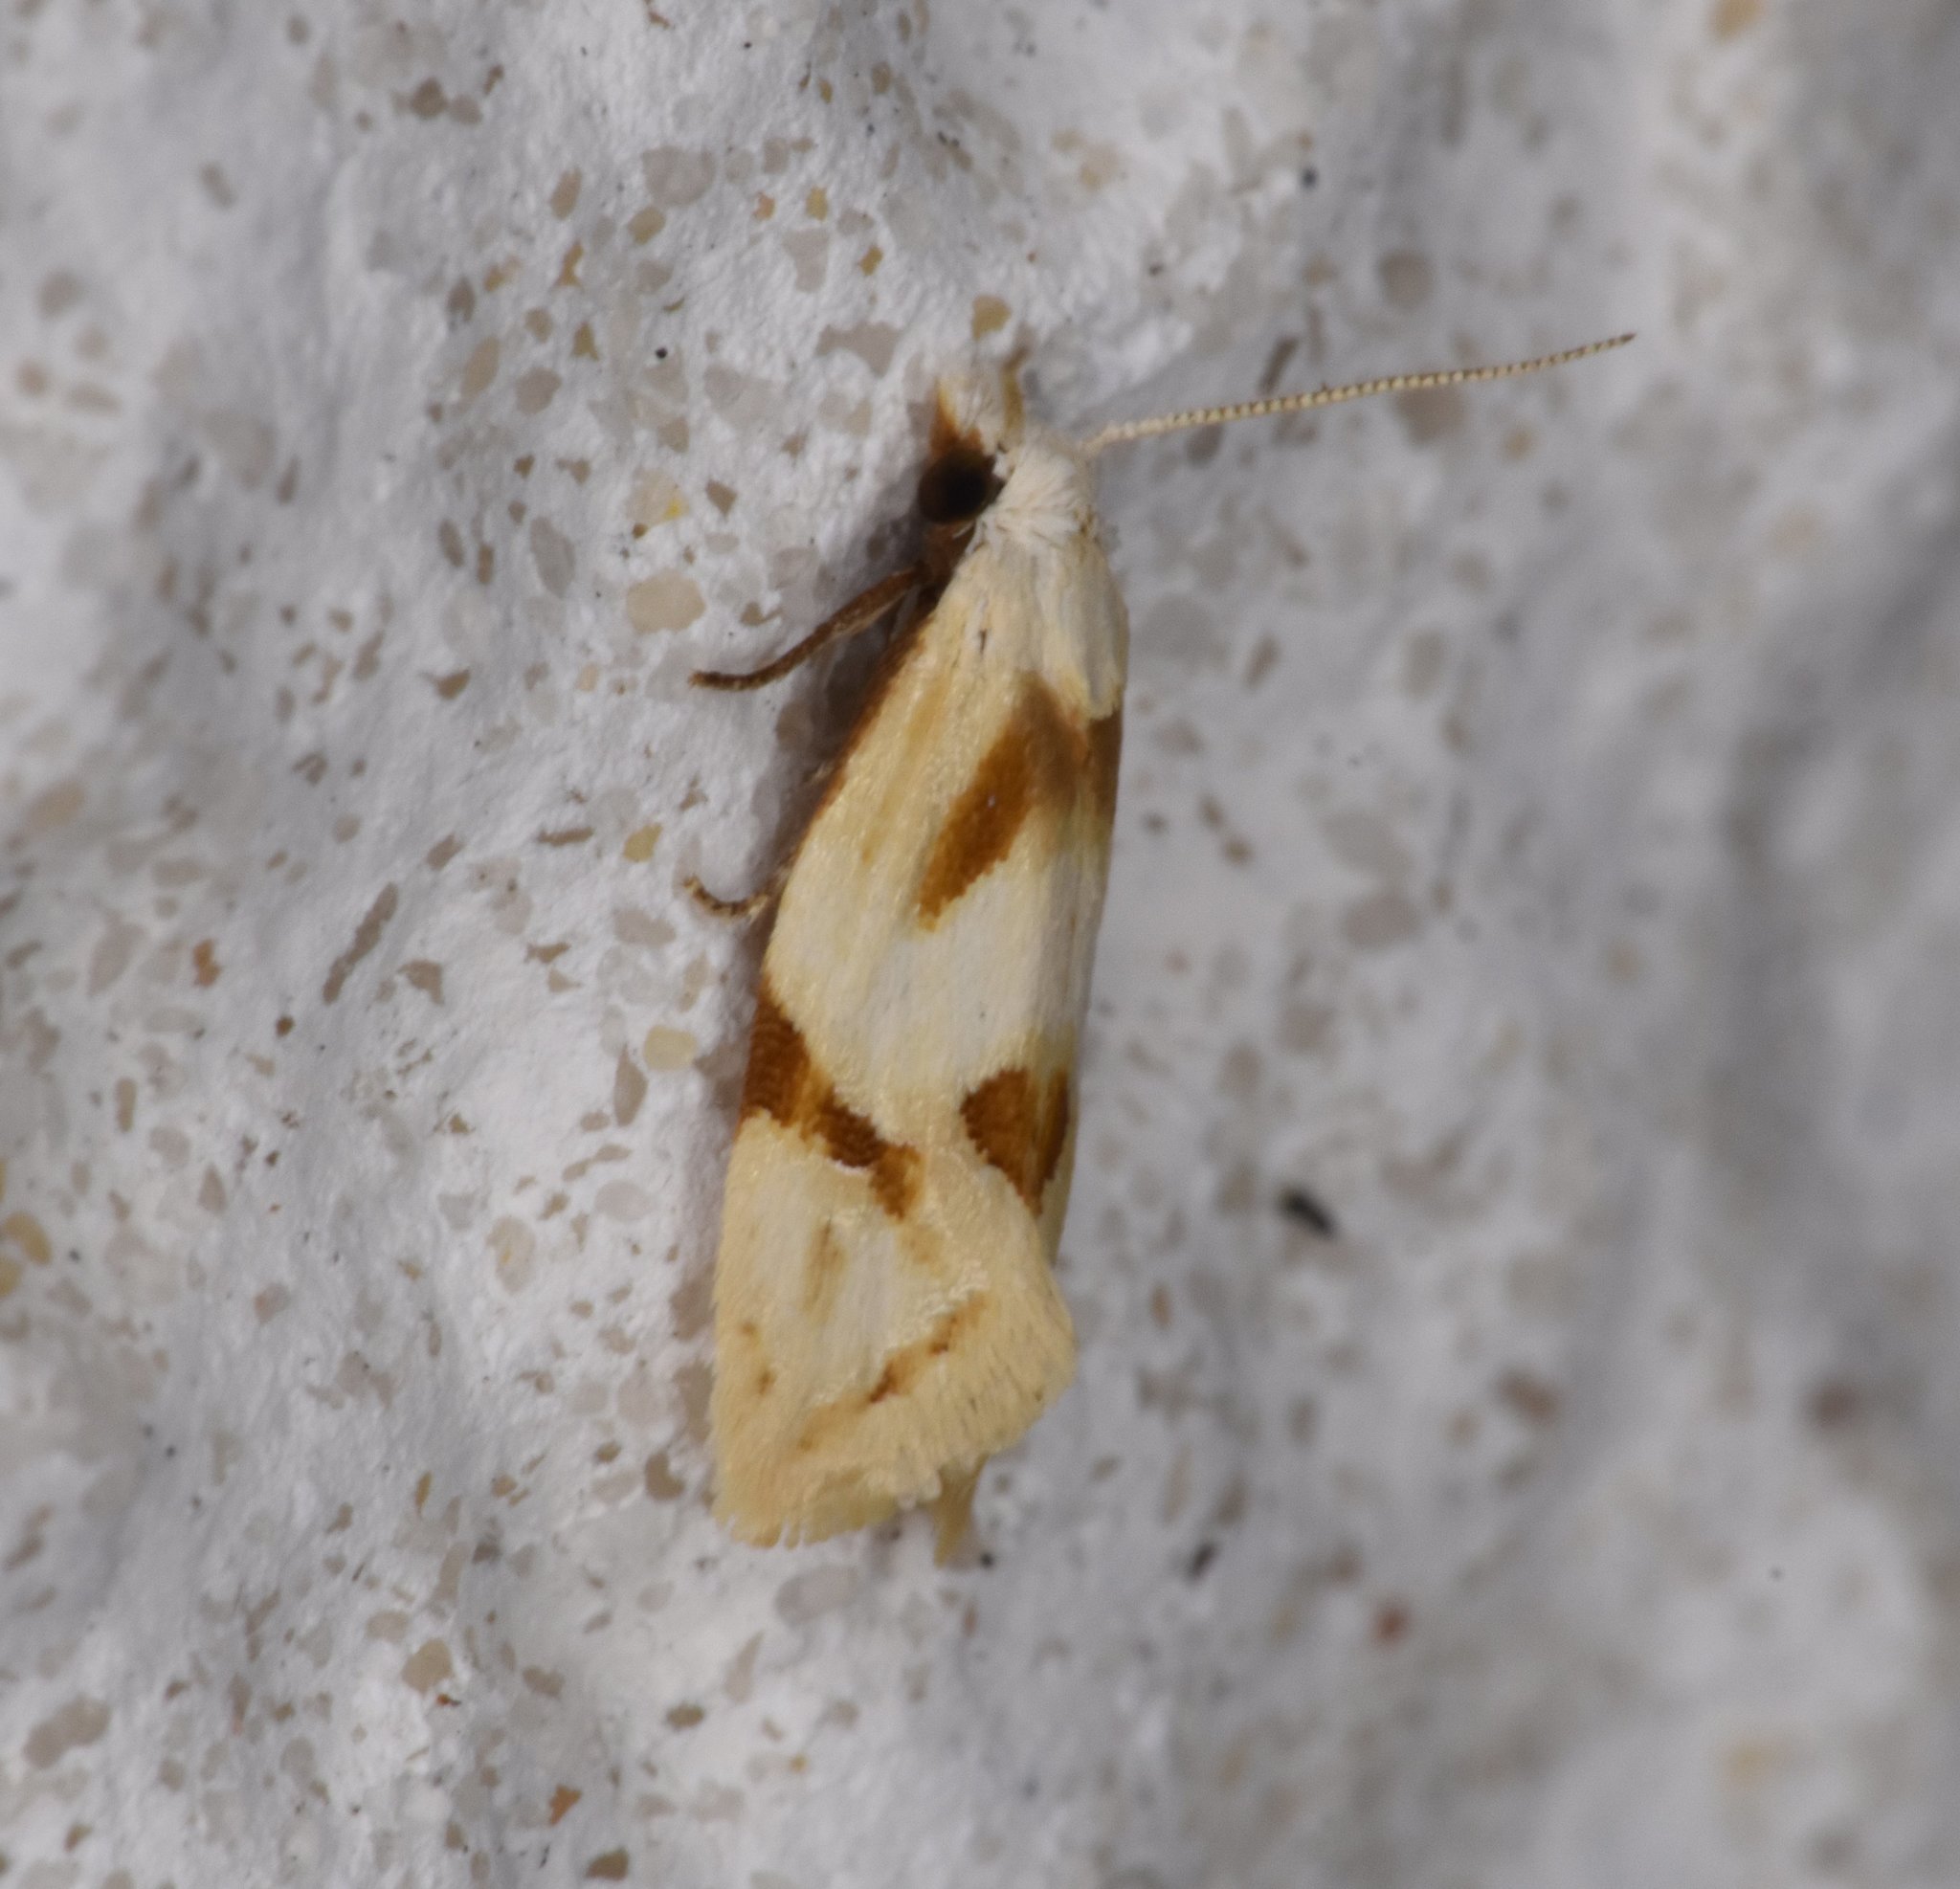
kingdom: Animalia
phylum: Arthropoda
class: Insecta
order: Lepidoptera
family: Tortricidae
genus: Aethes
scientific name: Aethes seriatana
